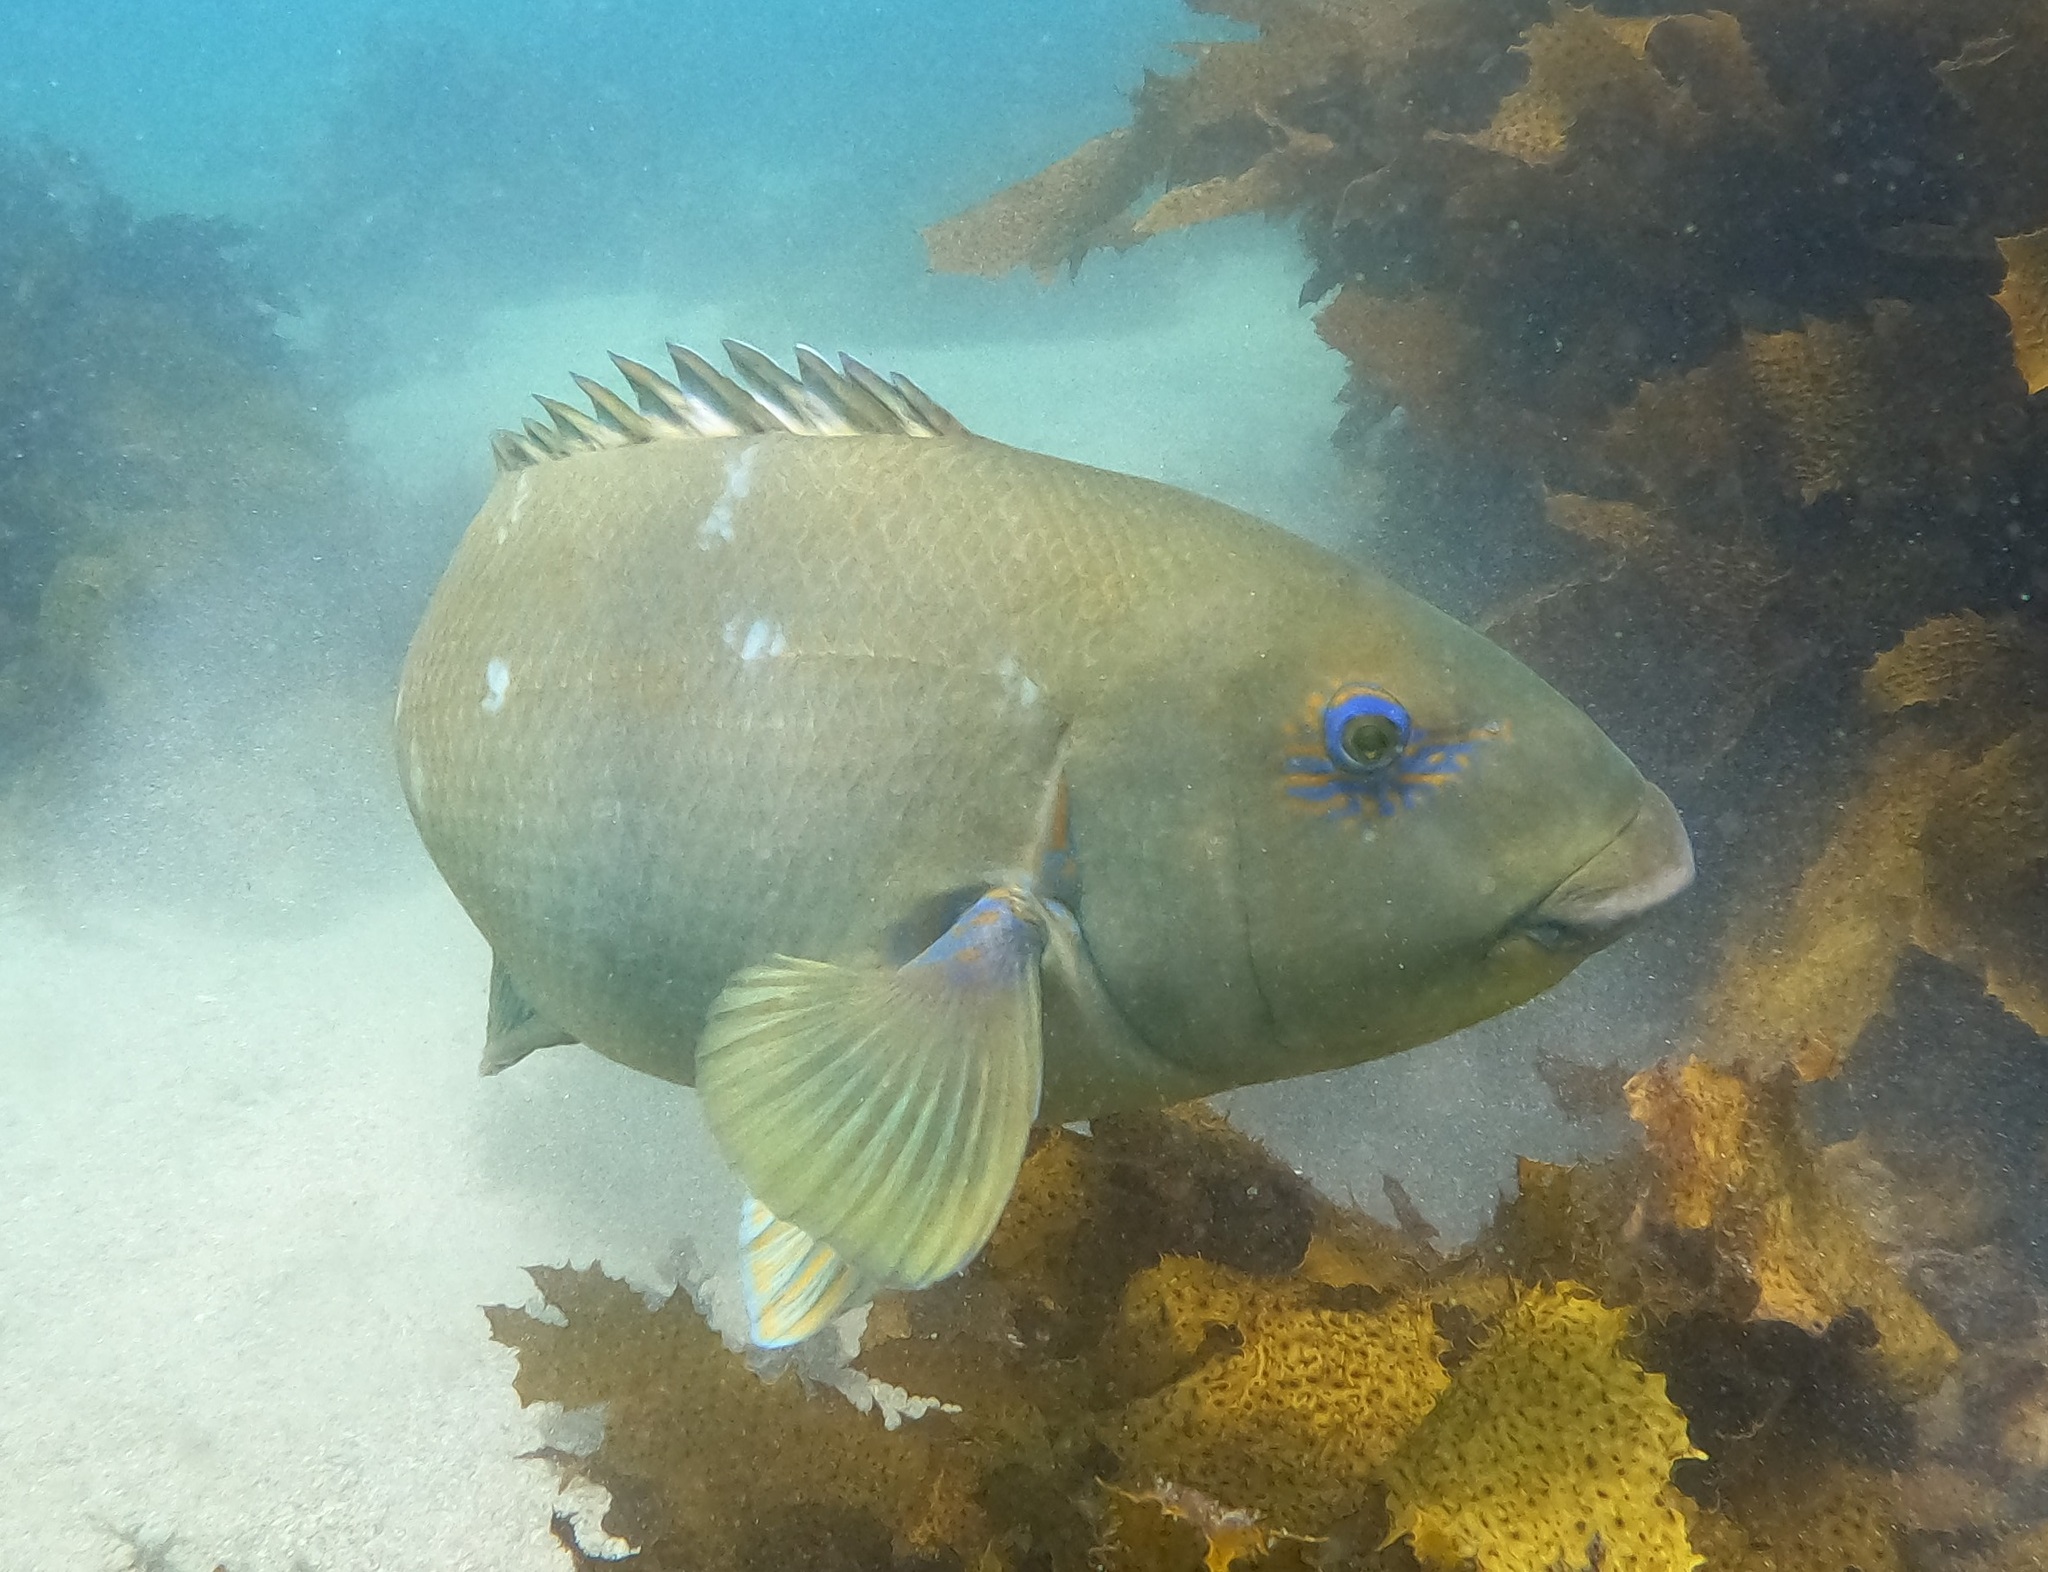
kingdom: Animalia
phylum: Chordata
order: Perciformes
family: Labridae
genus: Achoerodus
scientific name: Achoerodus viridis
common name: Brown groper
